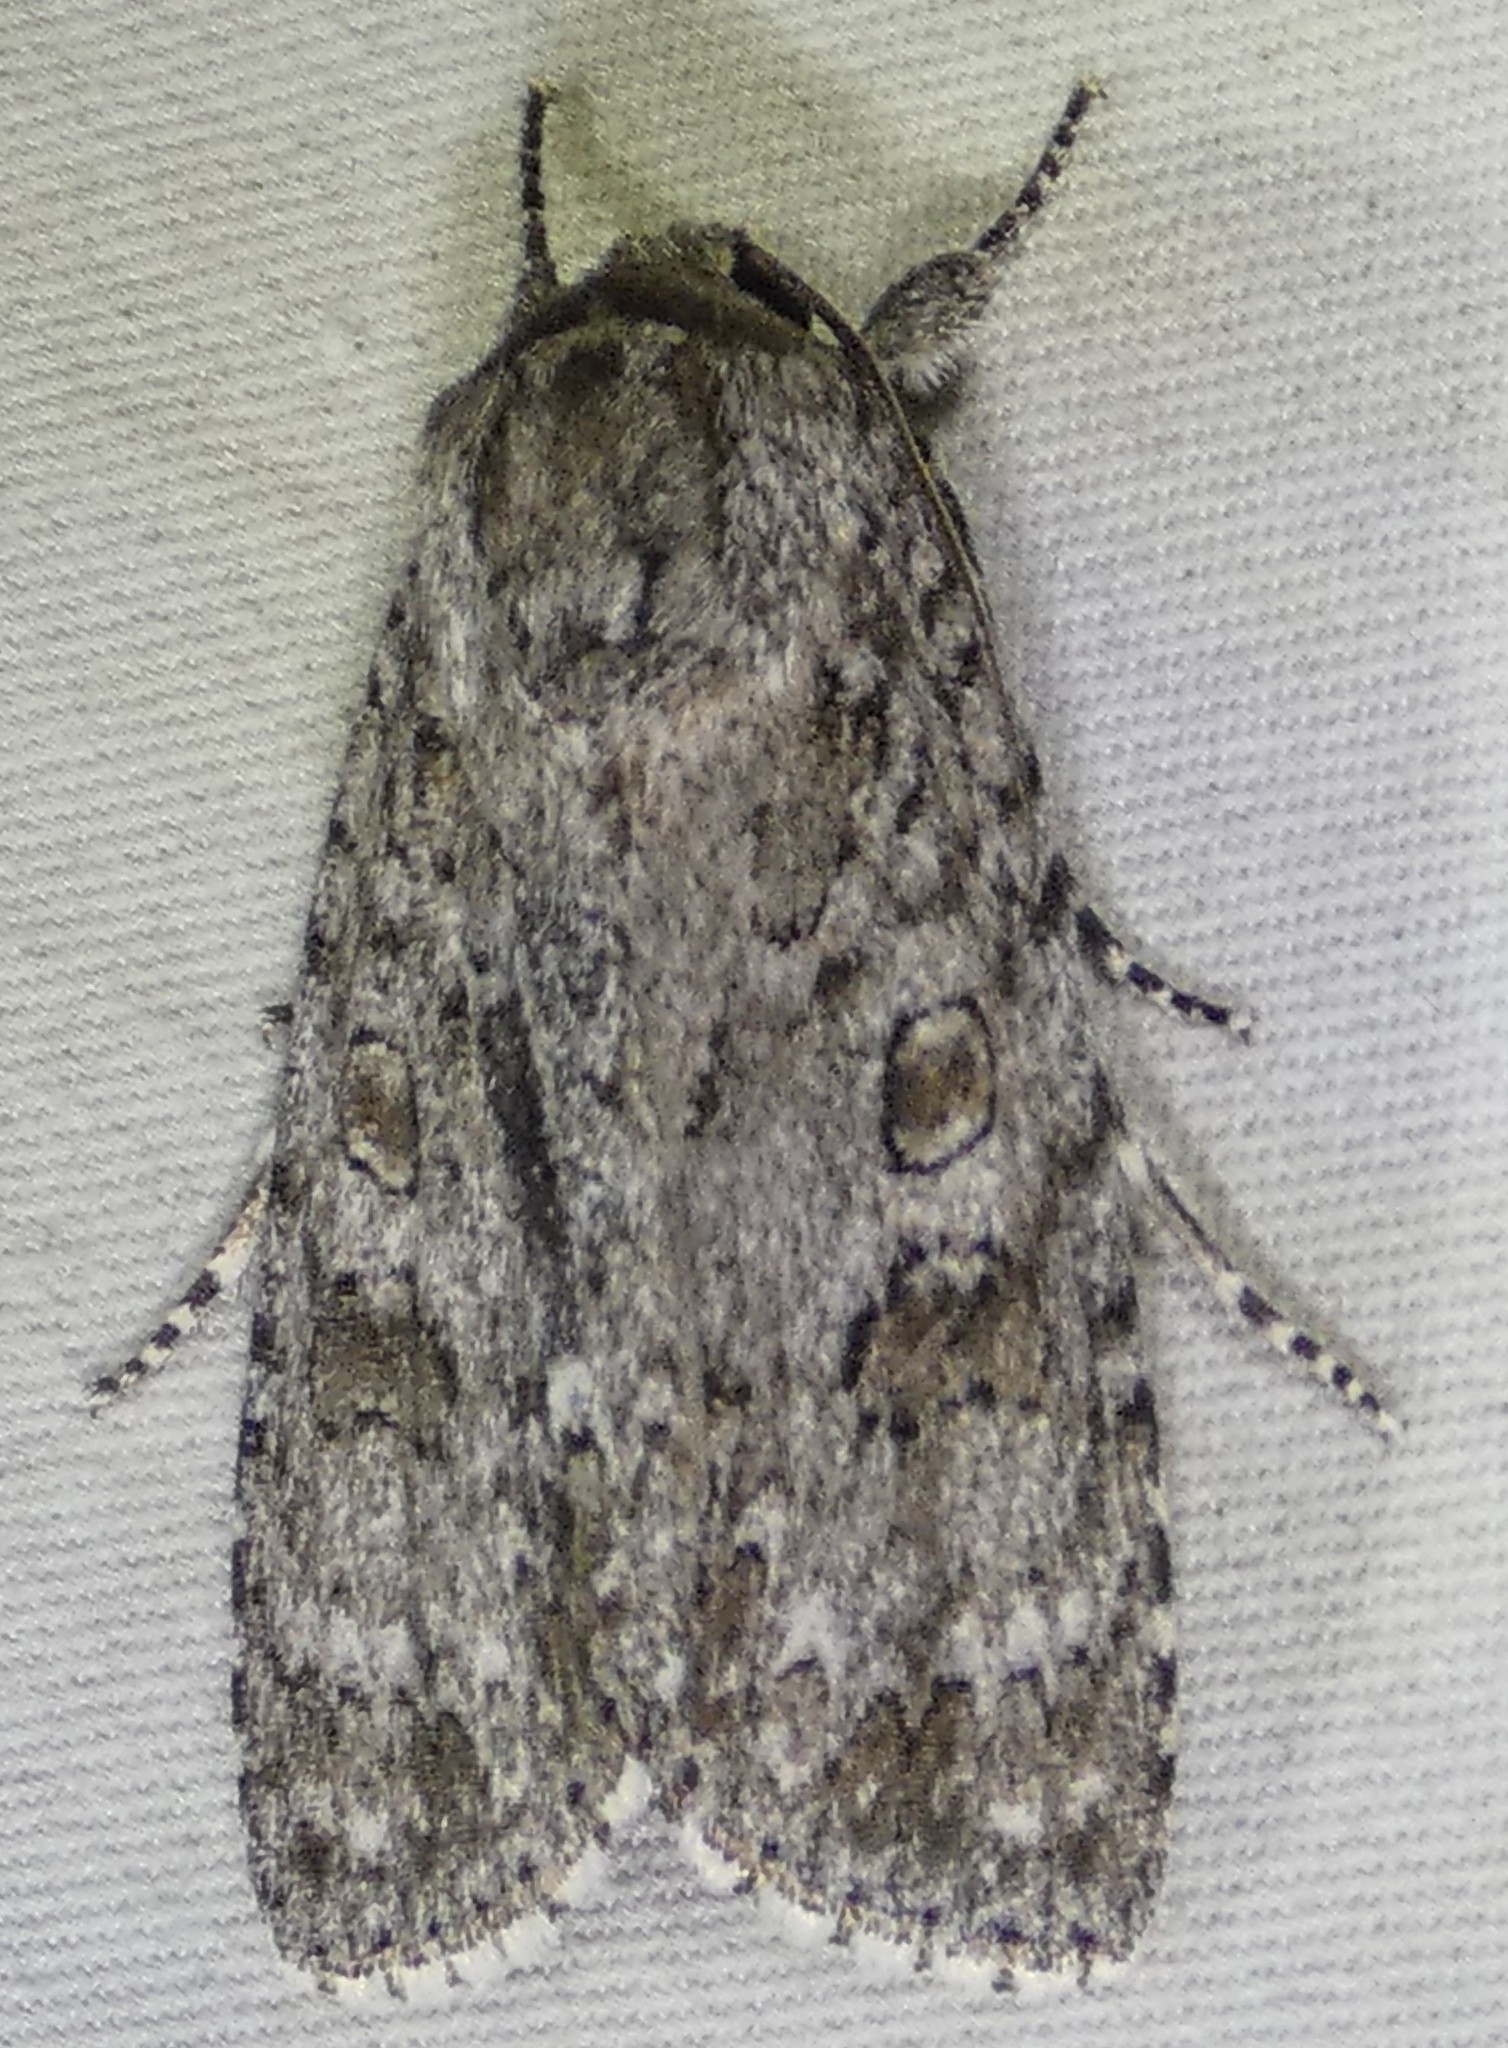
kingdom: Animalia
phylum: Arthropoda
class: Insecta
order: Lepidoptera
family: Noctuidae
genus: Acronicta
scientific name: Acronicta impleta
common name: Powdered dagger
